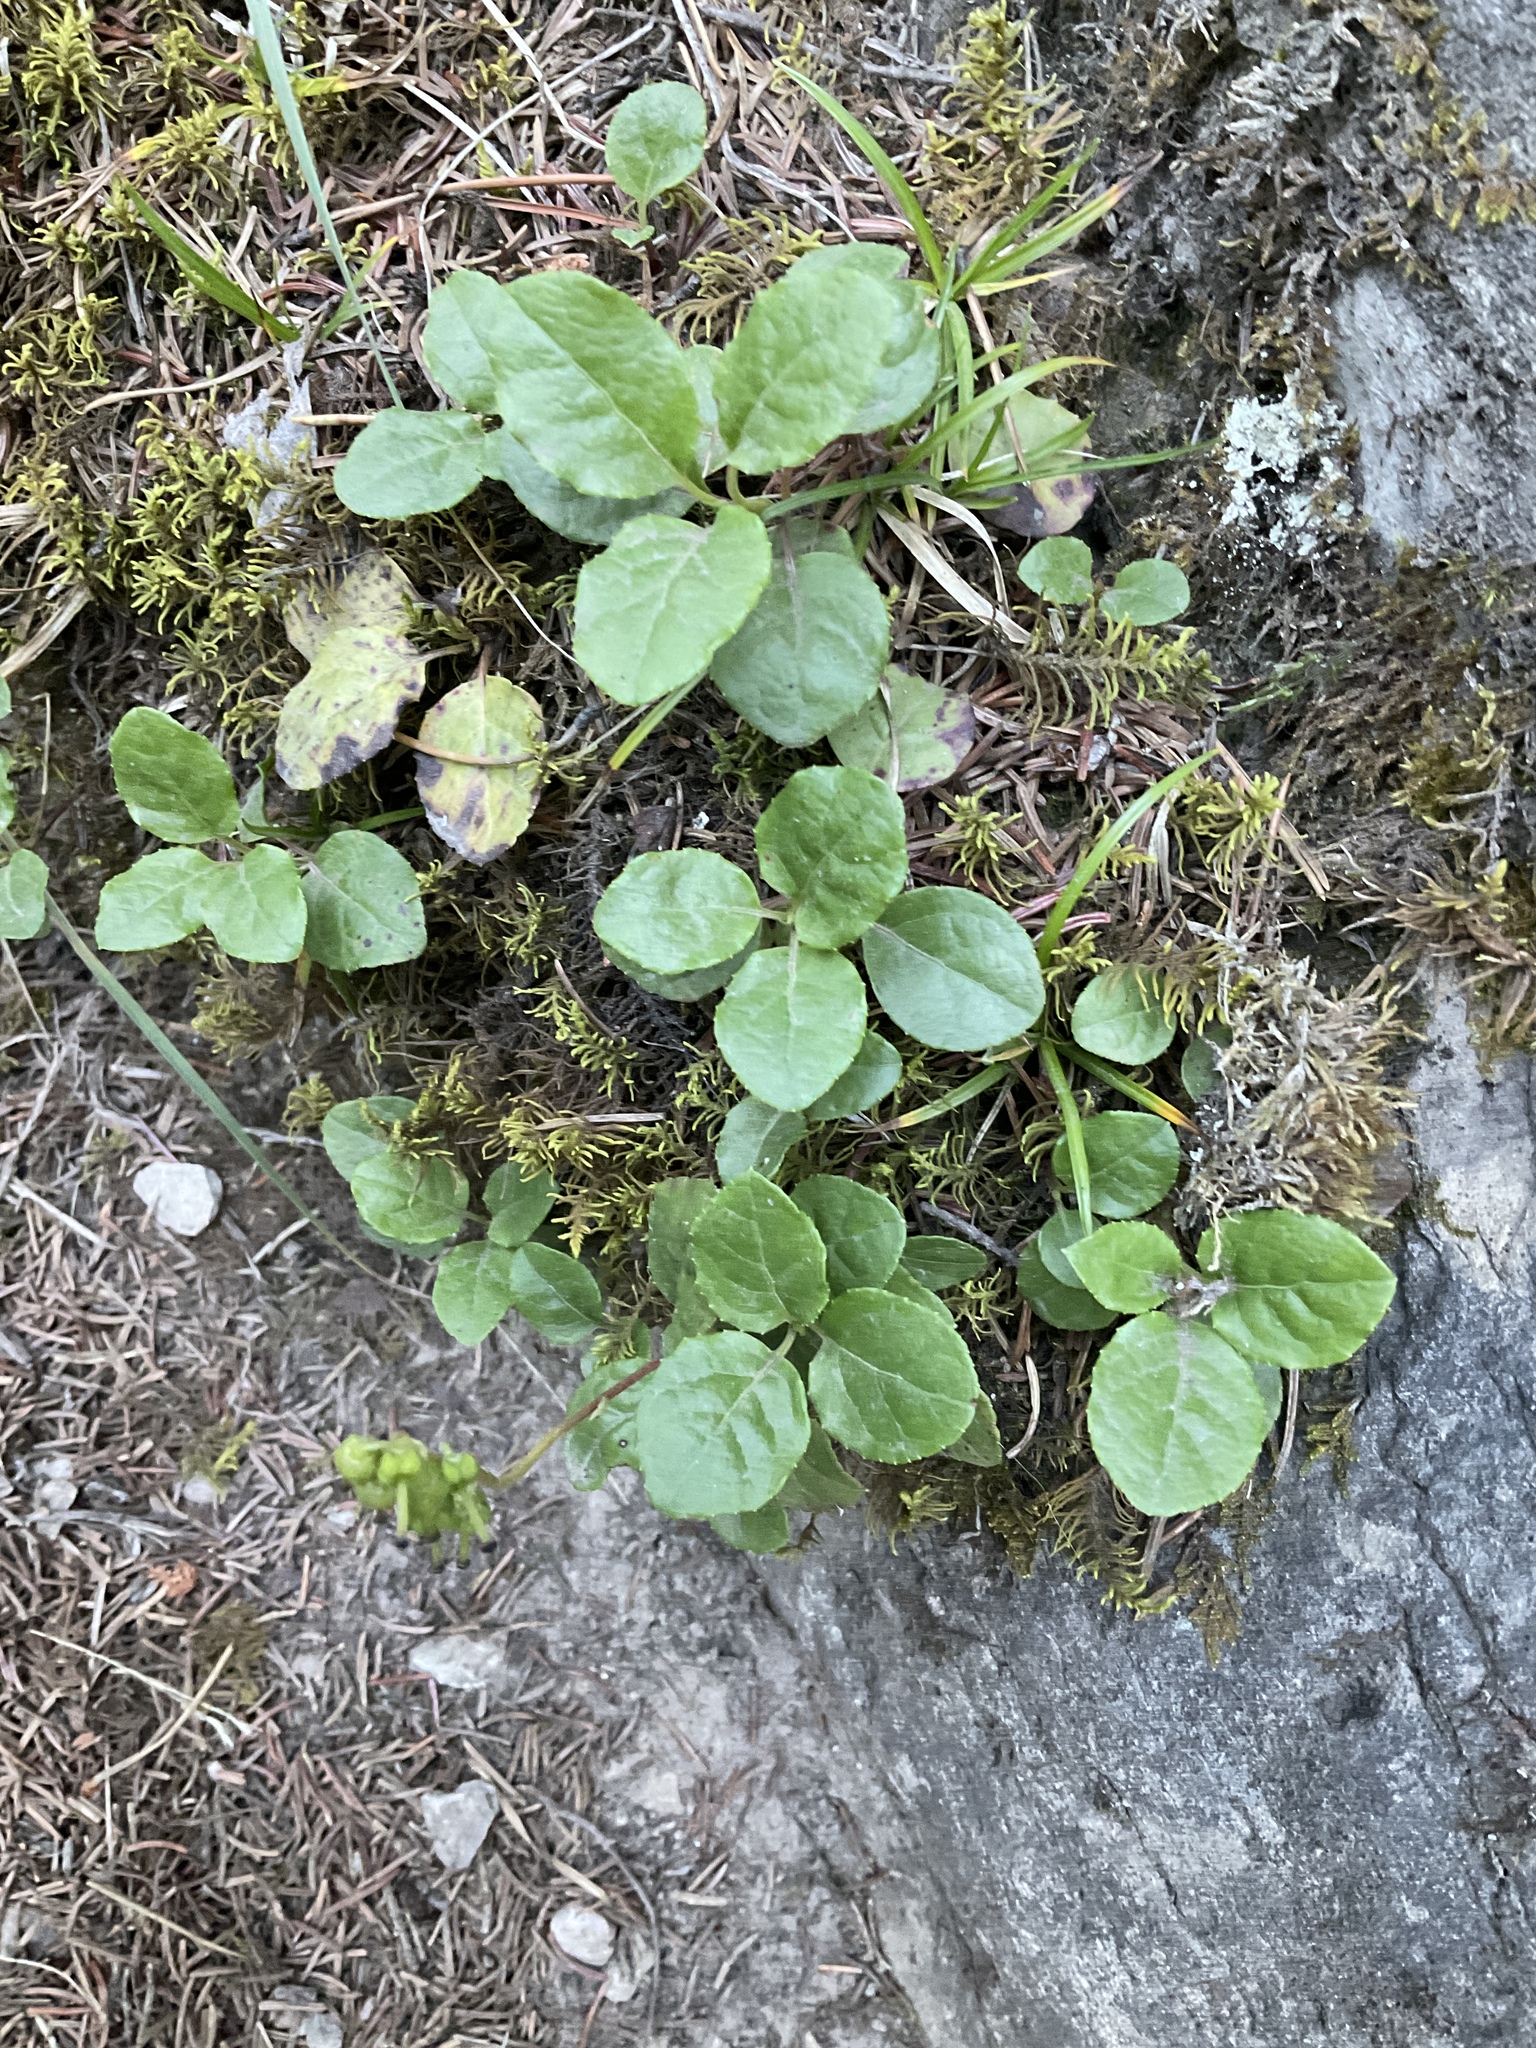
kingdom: Plantae
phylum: Tracheophyta
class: Magnoliopsida
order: Ericales
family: Ericaceae
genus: Orthilia
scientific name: Orthilia secunda
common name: One-sided orthilia
